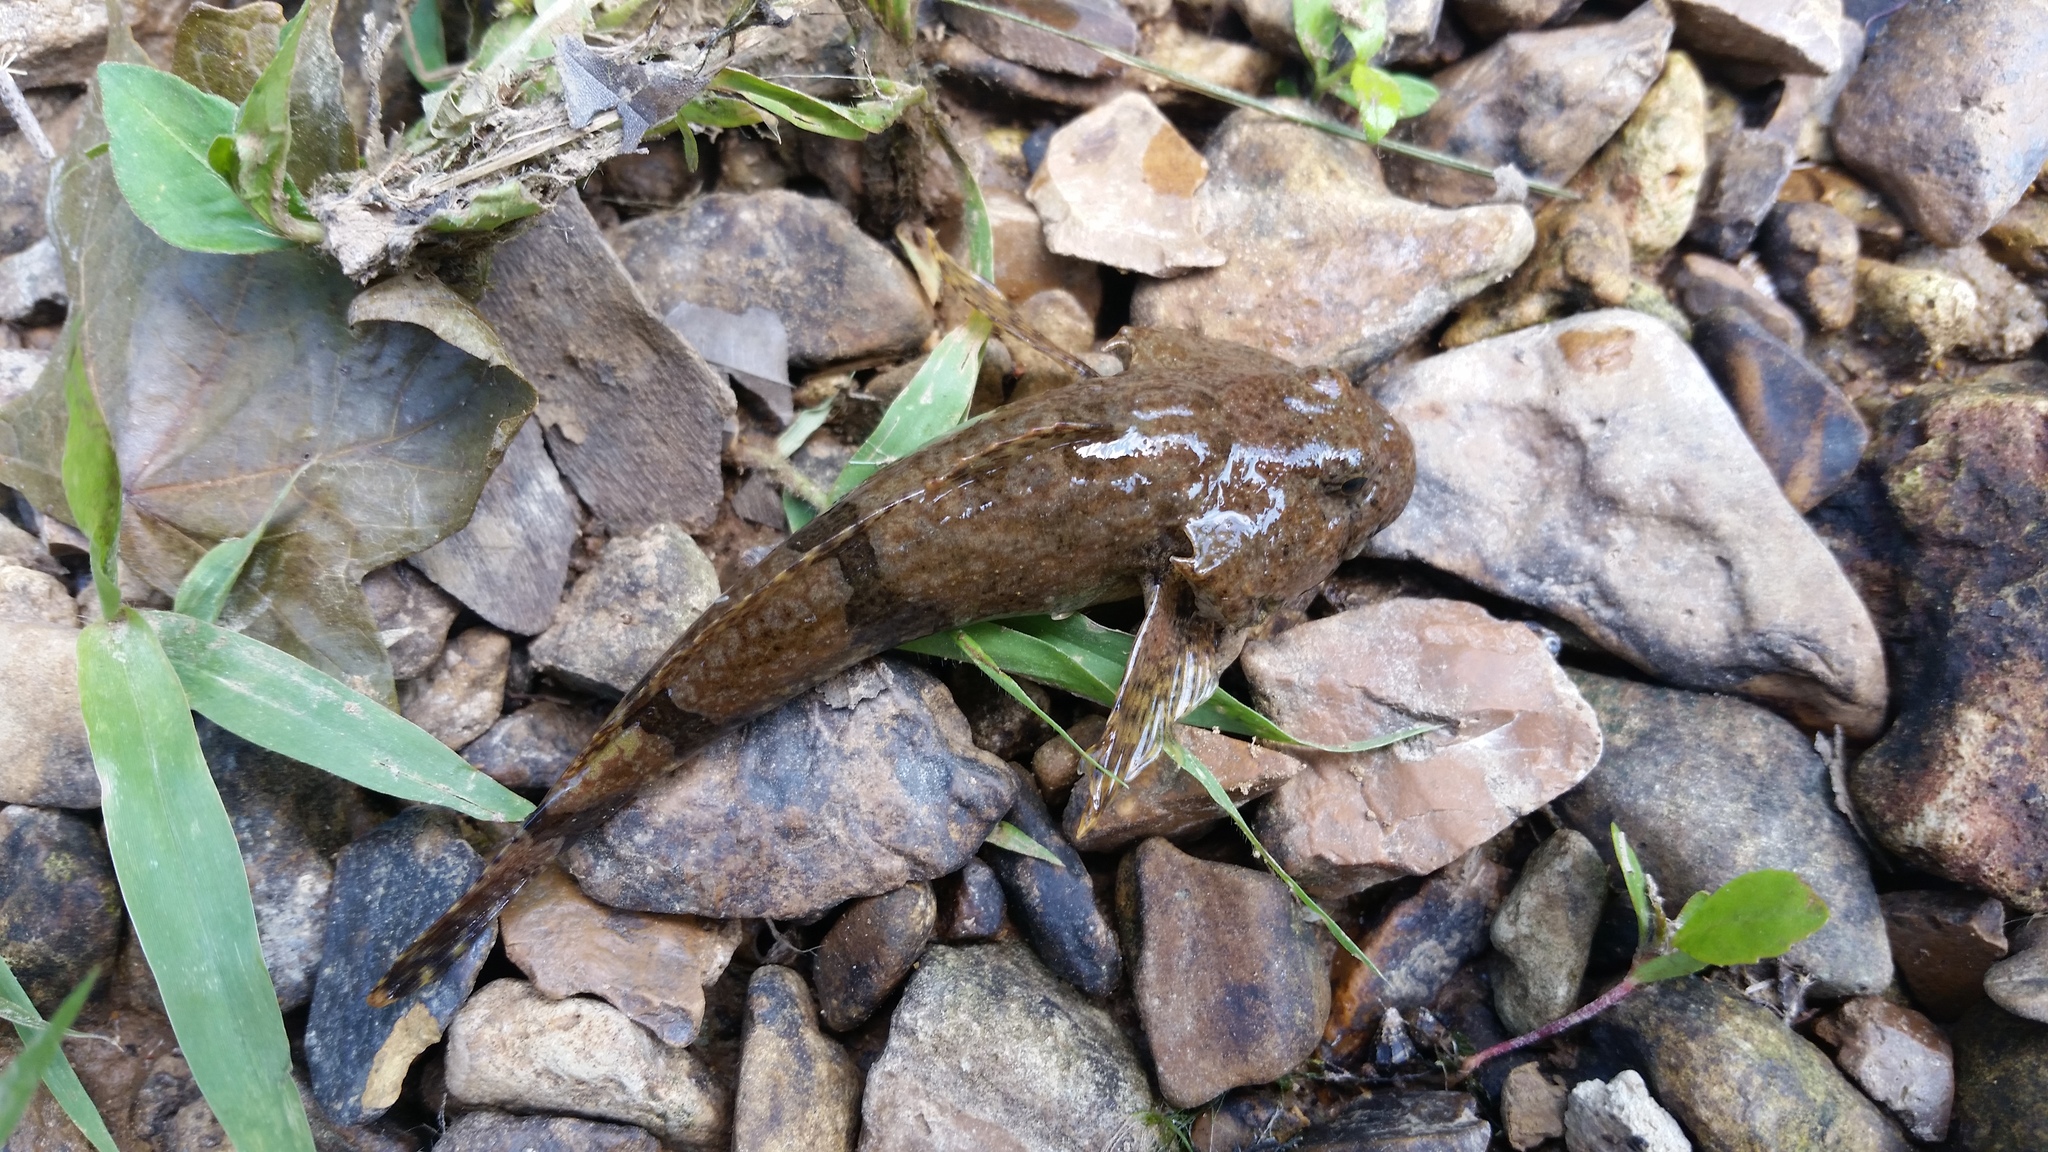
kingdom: Animalia
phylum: Chordata
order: Scorpaeniformes
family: Cottidae
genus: Cottus
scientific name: Cottus carolinae
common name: Banded sculpin
